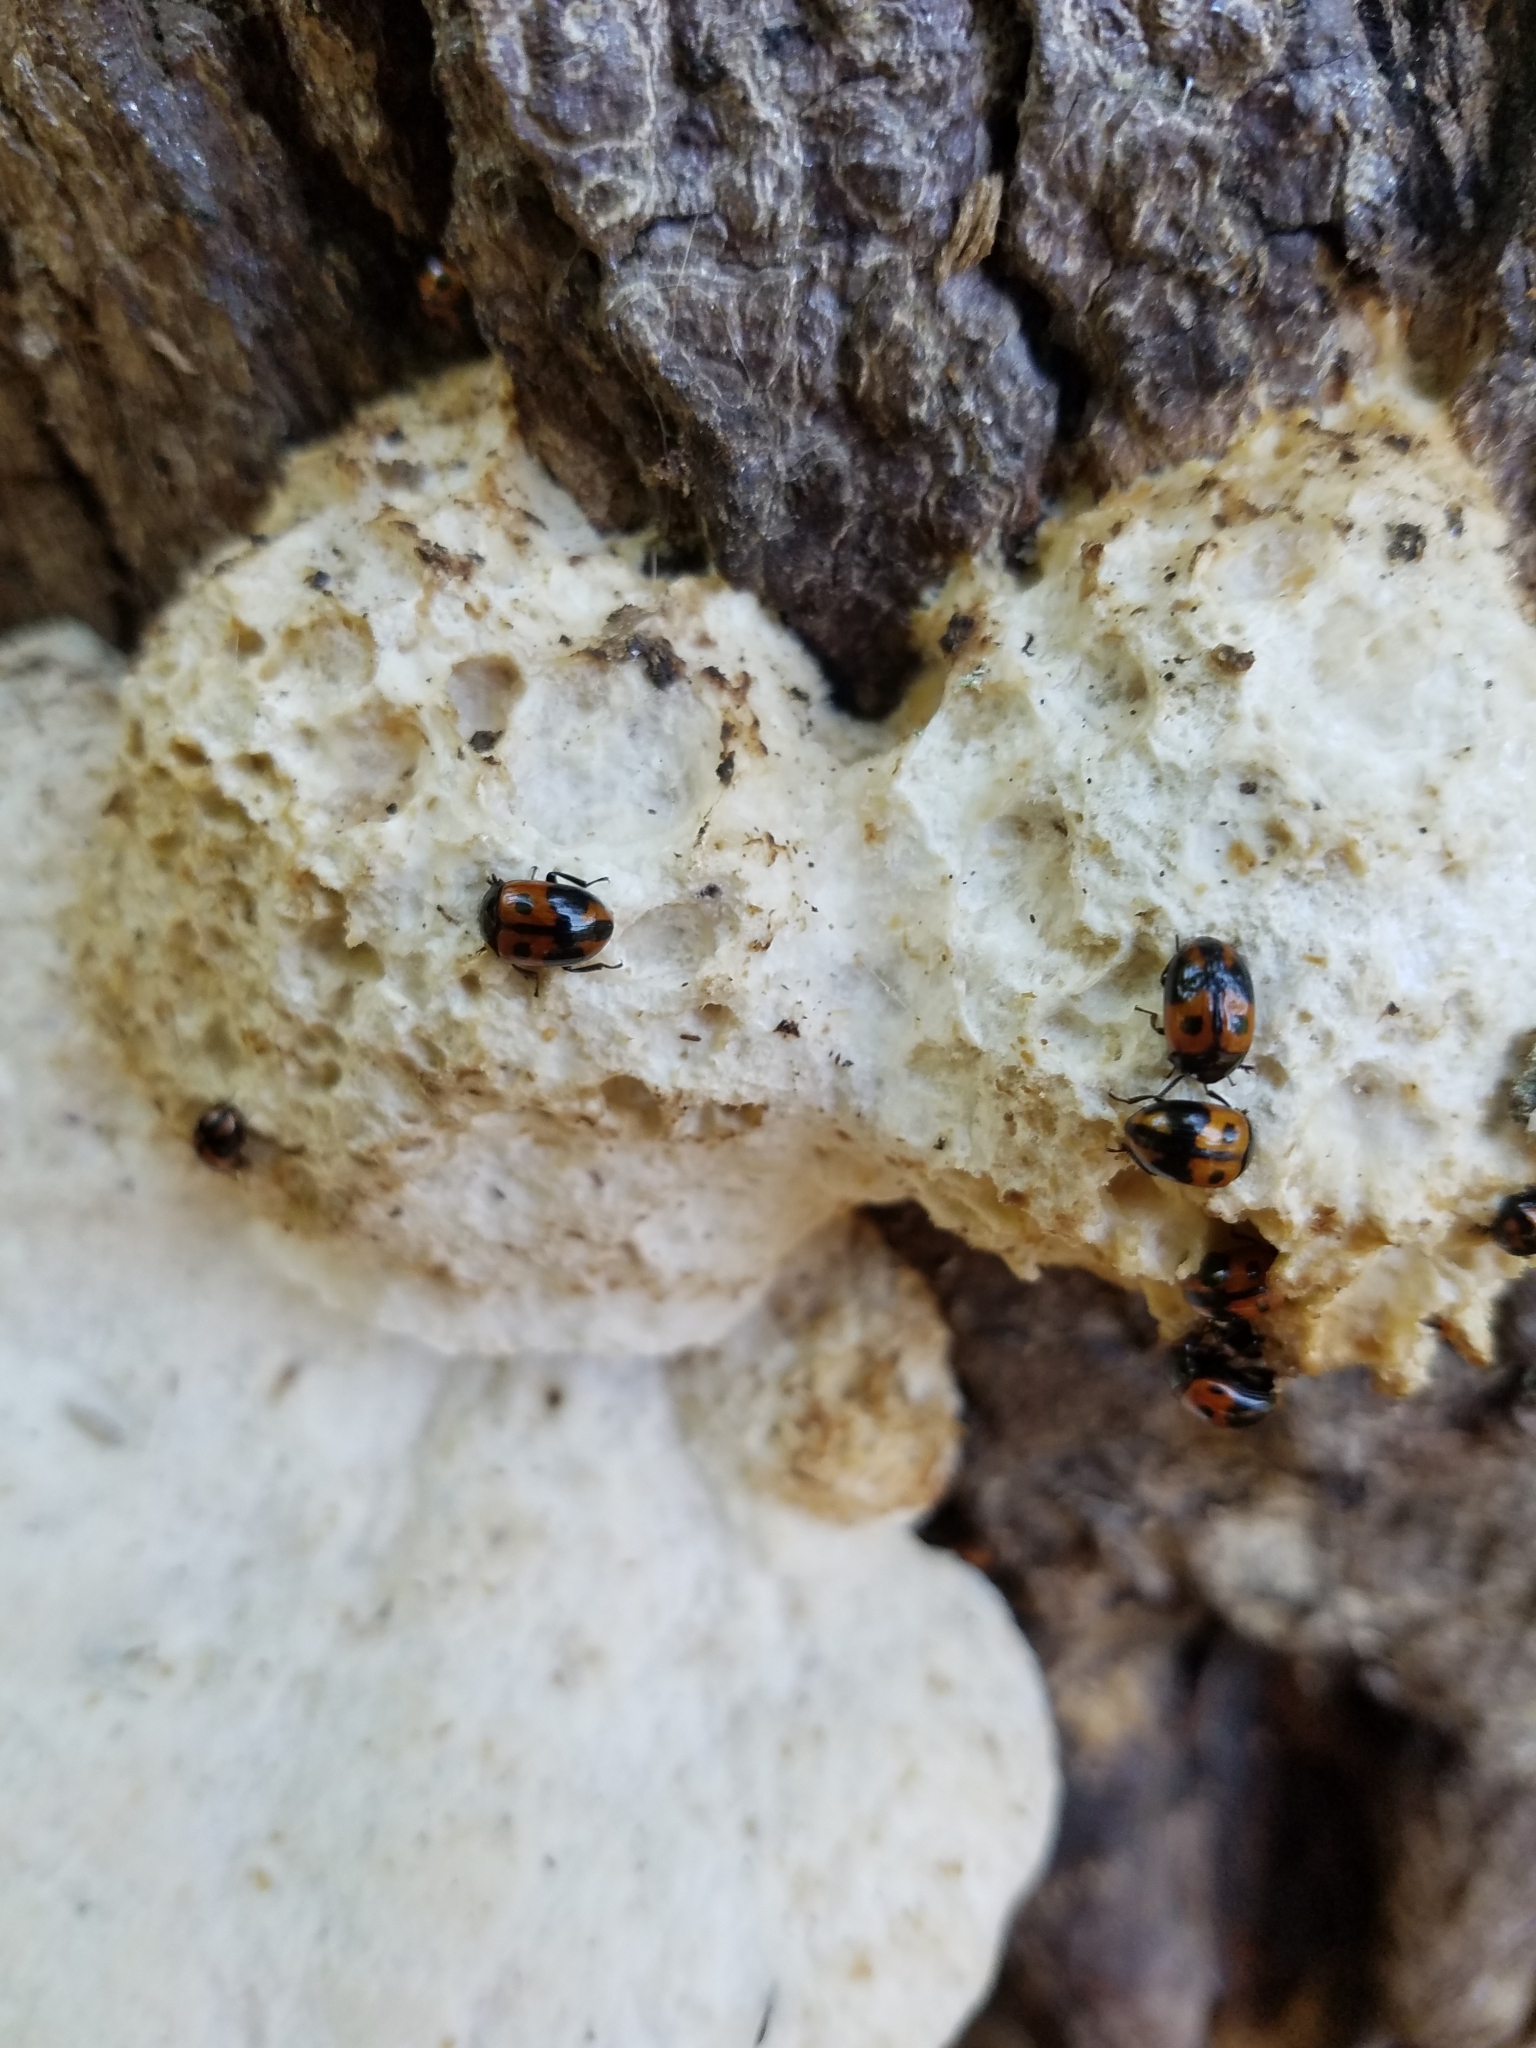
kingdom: Animalia
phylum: Arthropoda
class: Insecta
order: Coleoptera
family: Tenebrionidae
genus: Diaperis
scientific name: Diaperis maculata
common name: Darkling beetle
